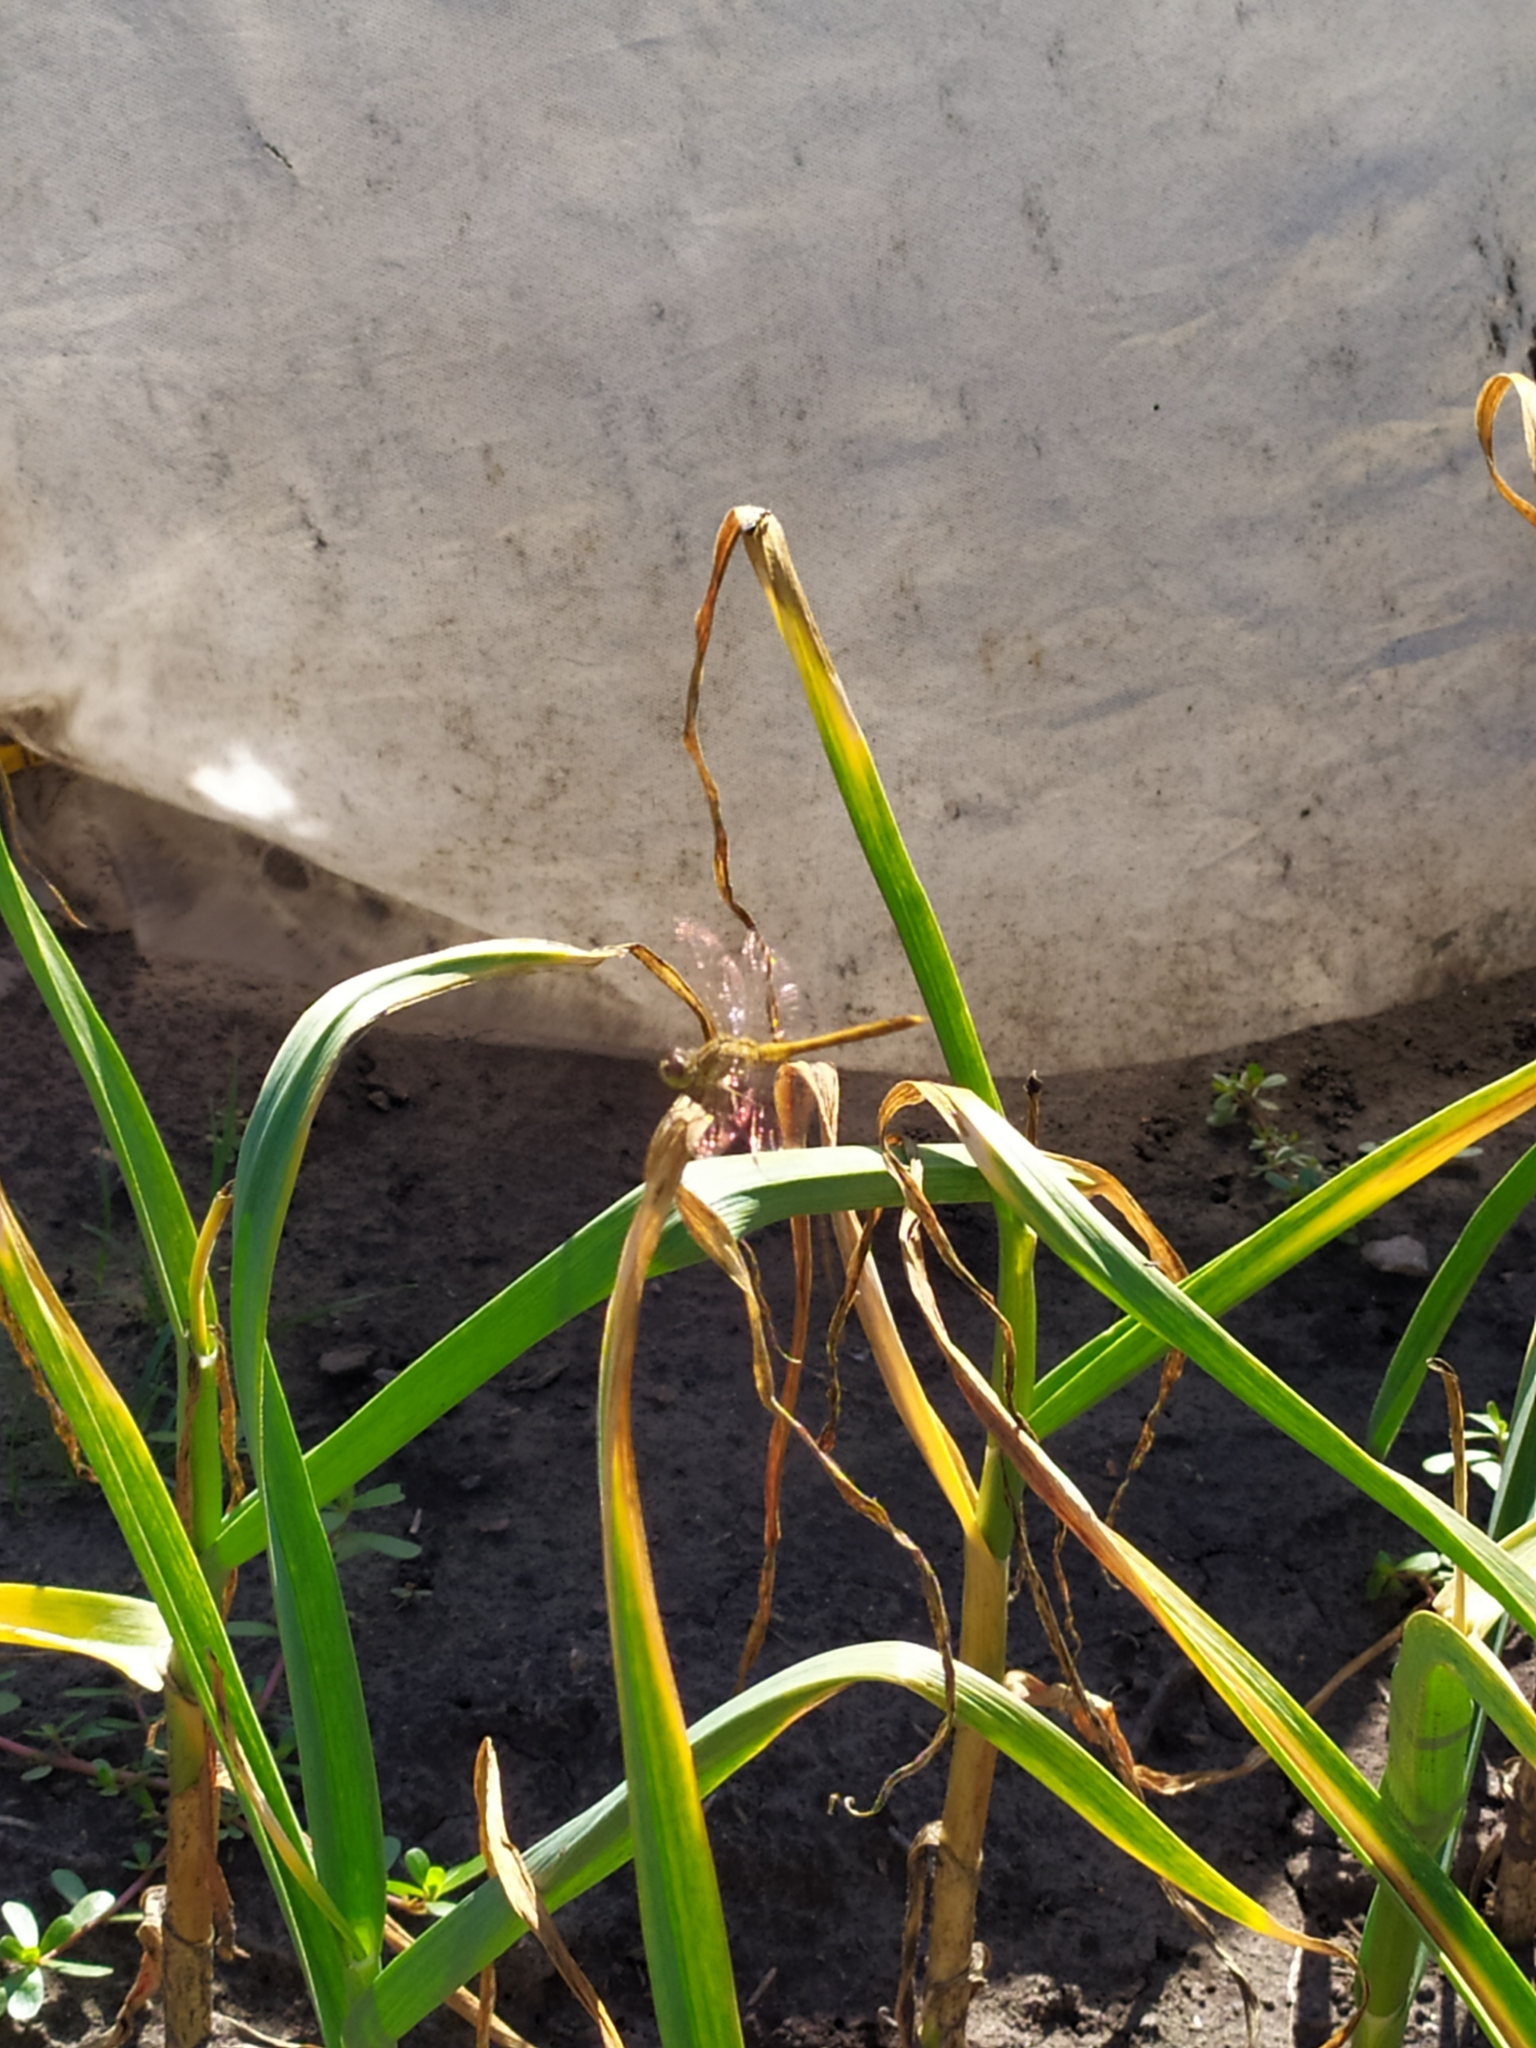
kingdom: Animalia
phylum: Arthropoda
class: Insecta
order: Odonata
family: Libellulidae
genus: Sympetrum
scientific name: Sympetrum vulgatum
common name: Vagrant darter
